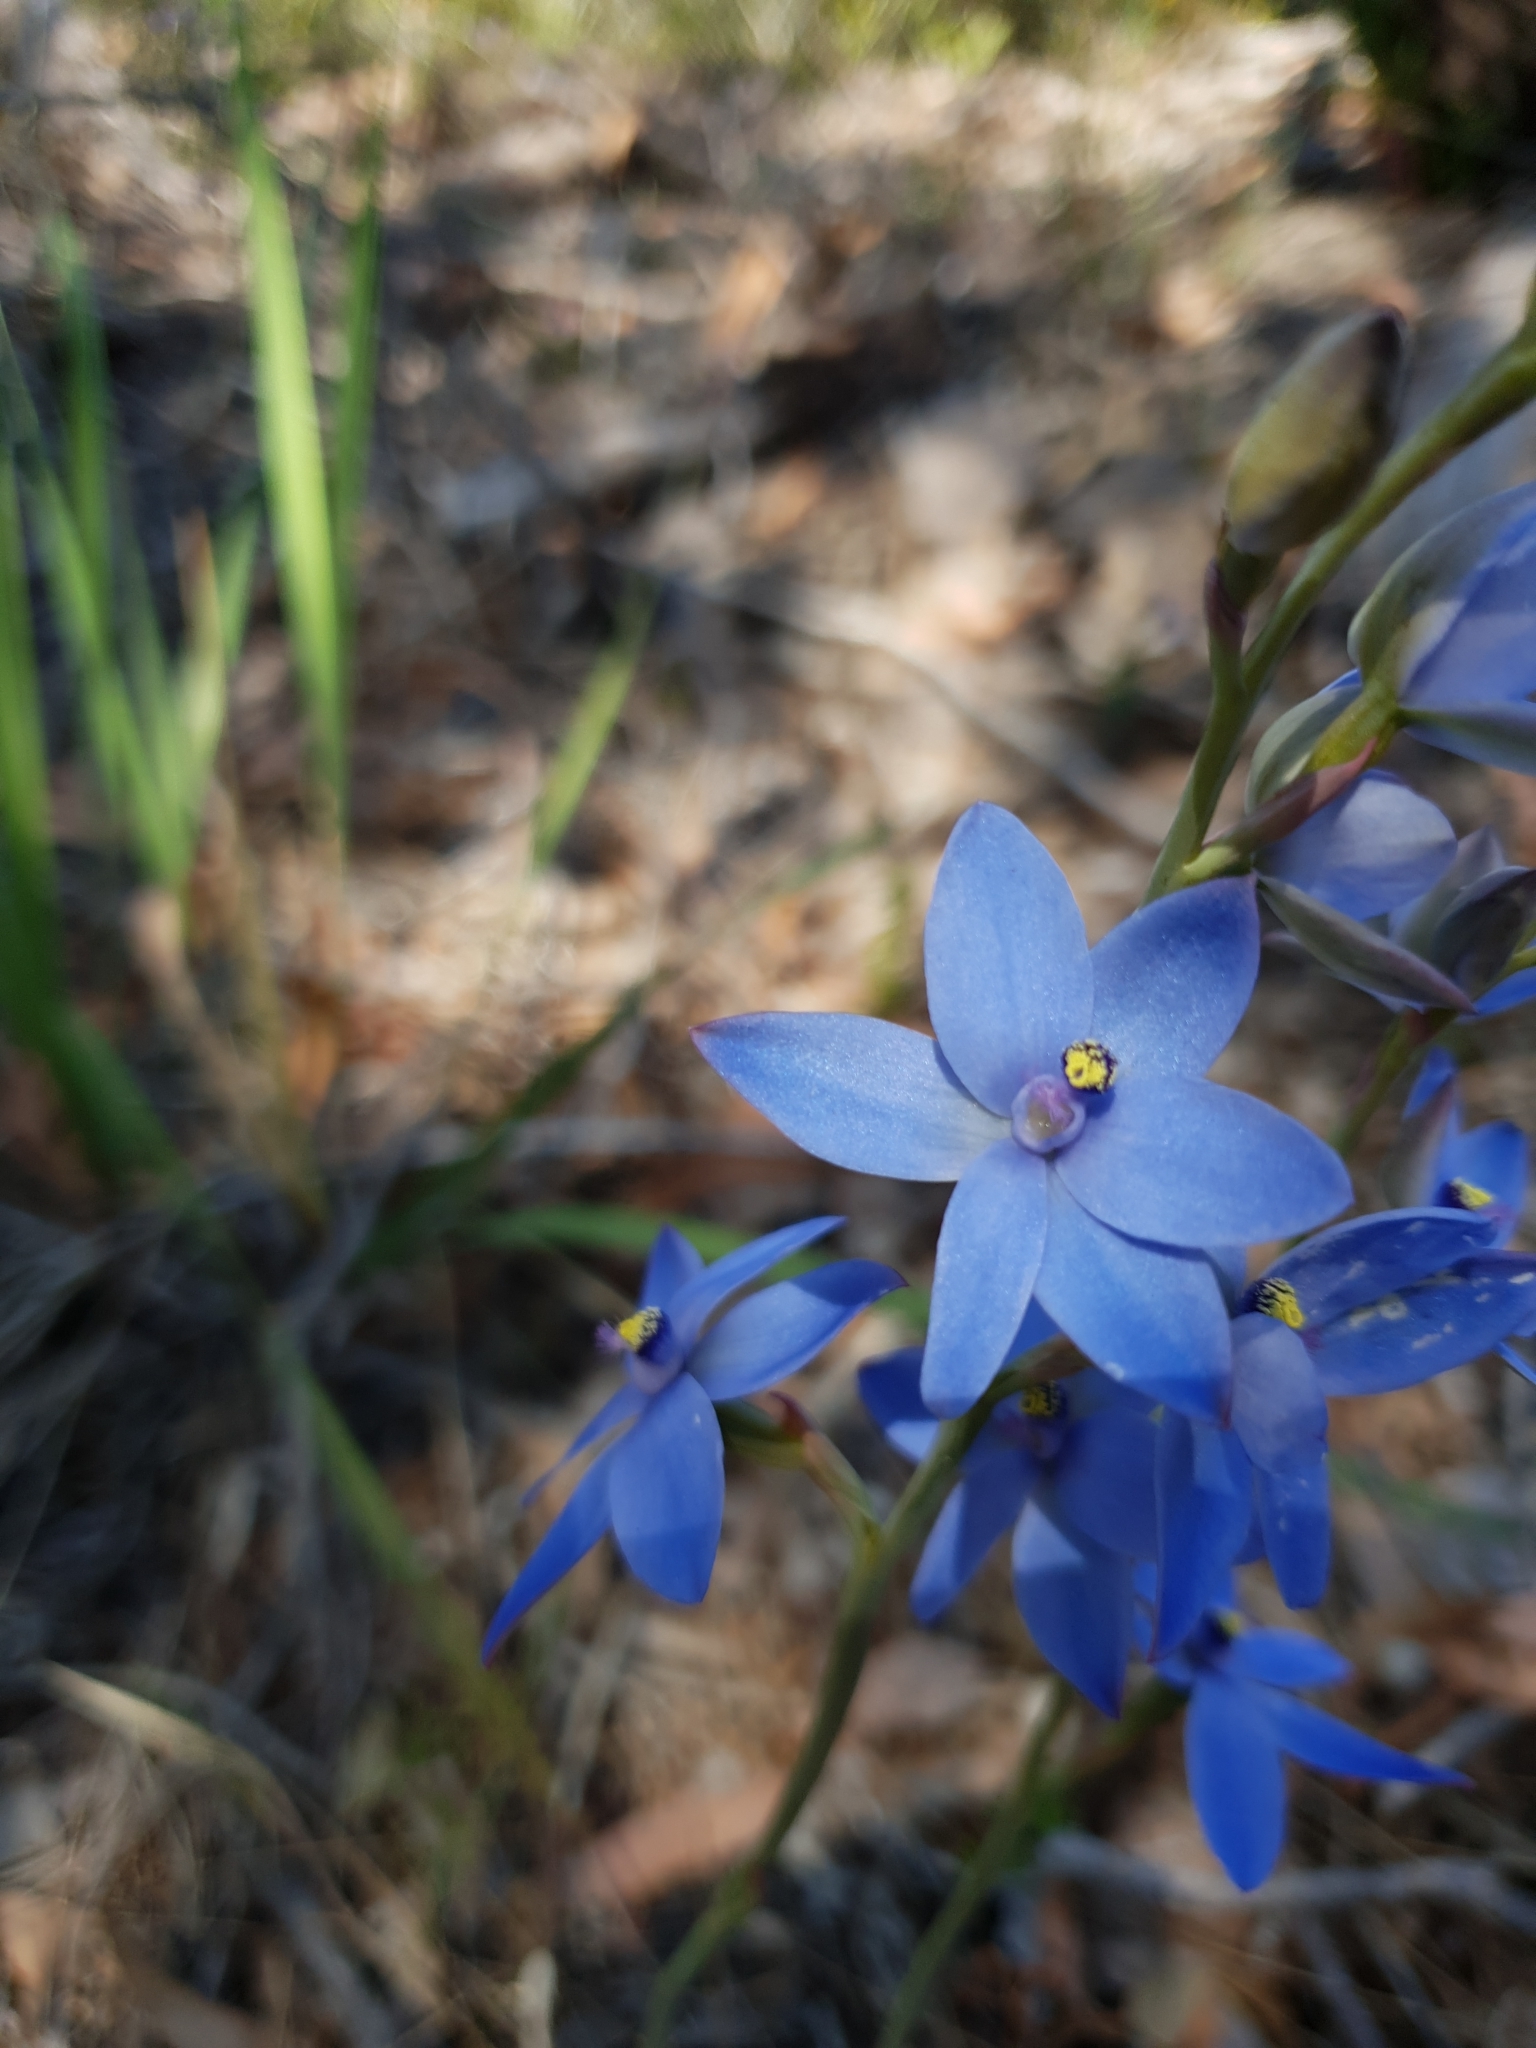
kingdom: Plantae
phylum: Tracheophyta
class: Liliopsida
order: Asparagales
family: Orchidaceae
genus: Thelymitra
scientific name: Thelymitra crinita
